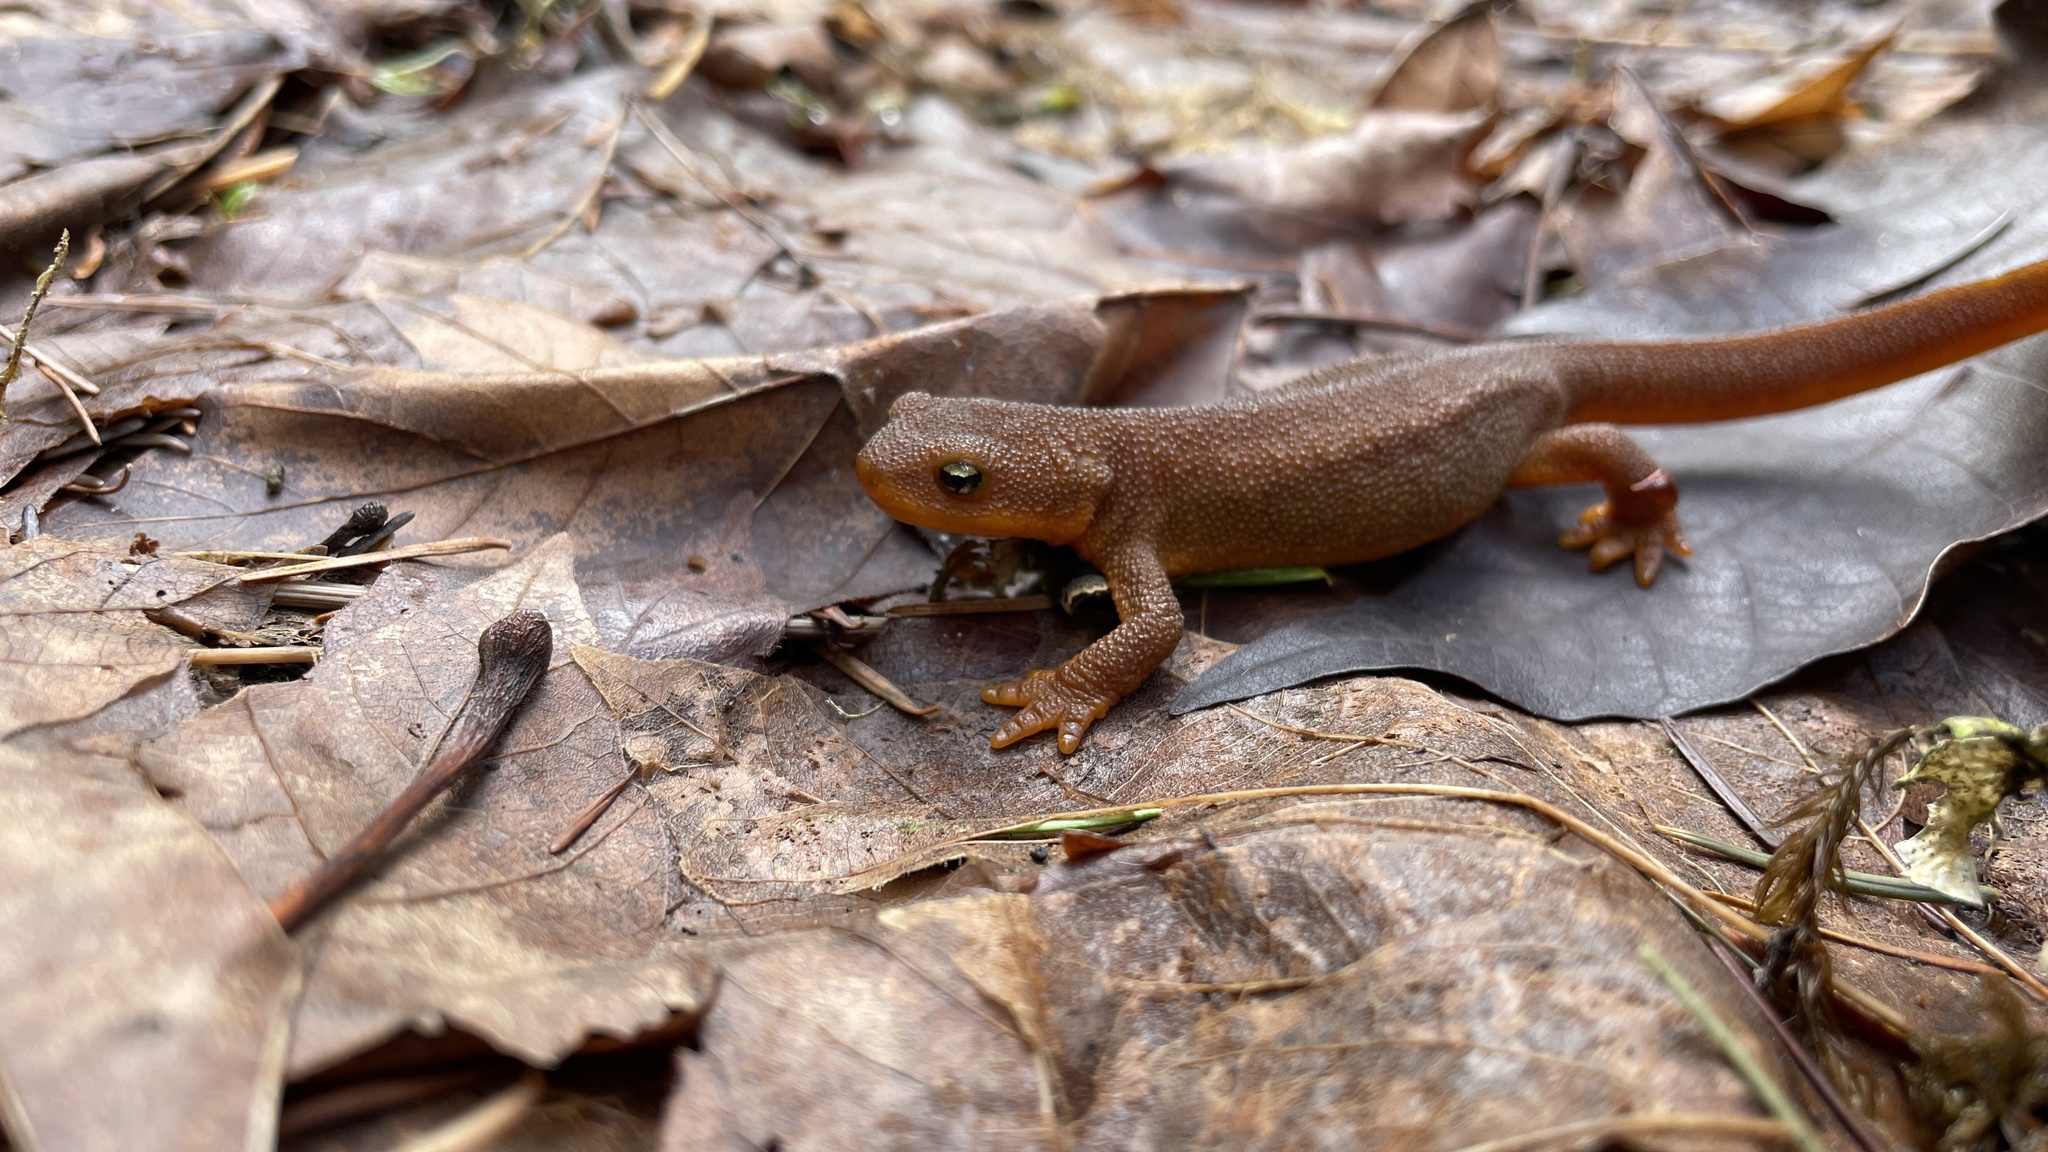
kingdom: Animalia
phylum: Chordata
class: Amphibia
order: Caudata
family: Salamandridae
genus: Taricha
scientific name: Taricha granulosa
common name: Roughskin newt
